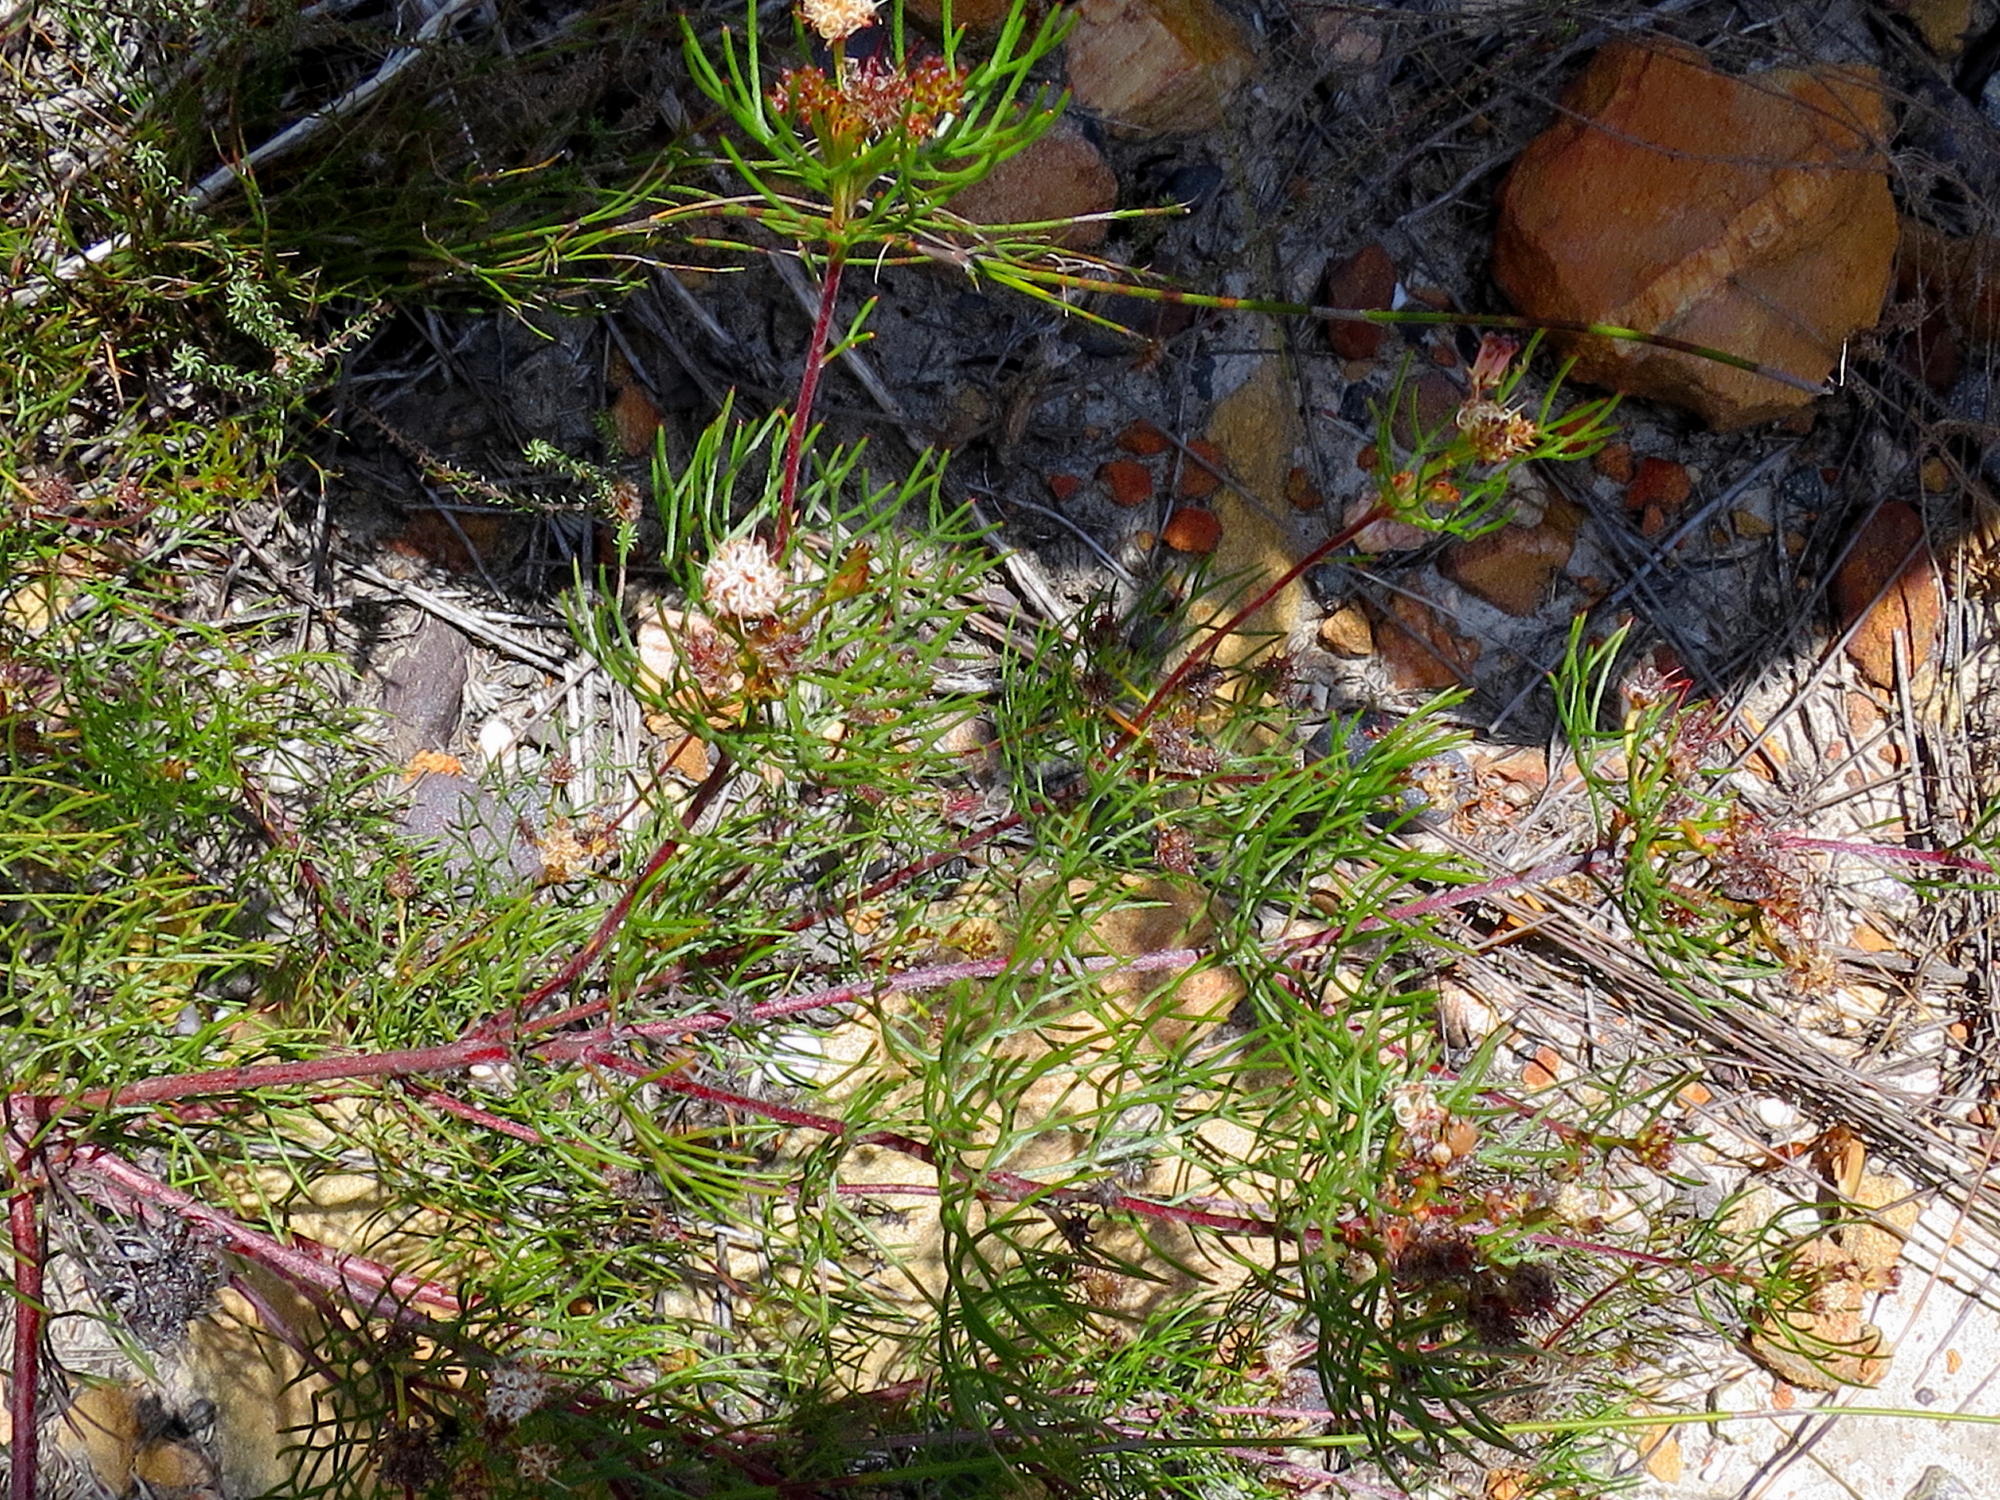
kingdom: Plantae
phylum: Tracheophyta
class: Magnoliopsida
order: Proteales
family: Proteaceae
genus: Serruria
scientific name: Serruria fasciflora
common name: Common pin spiderhead
